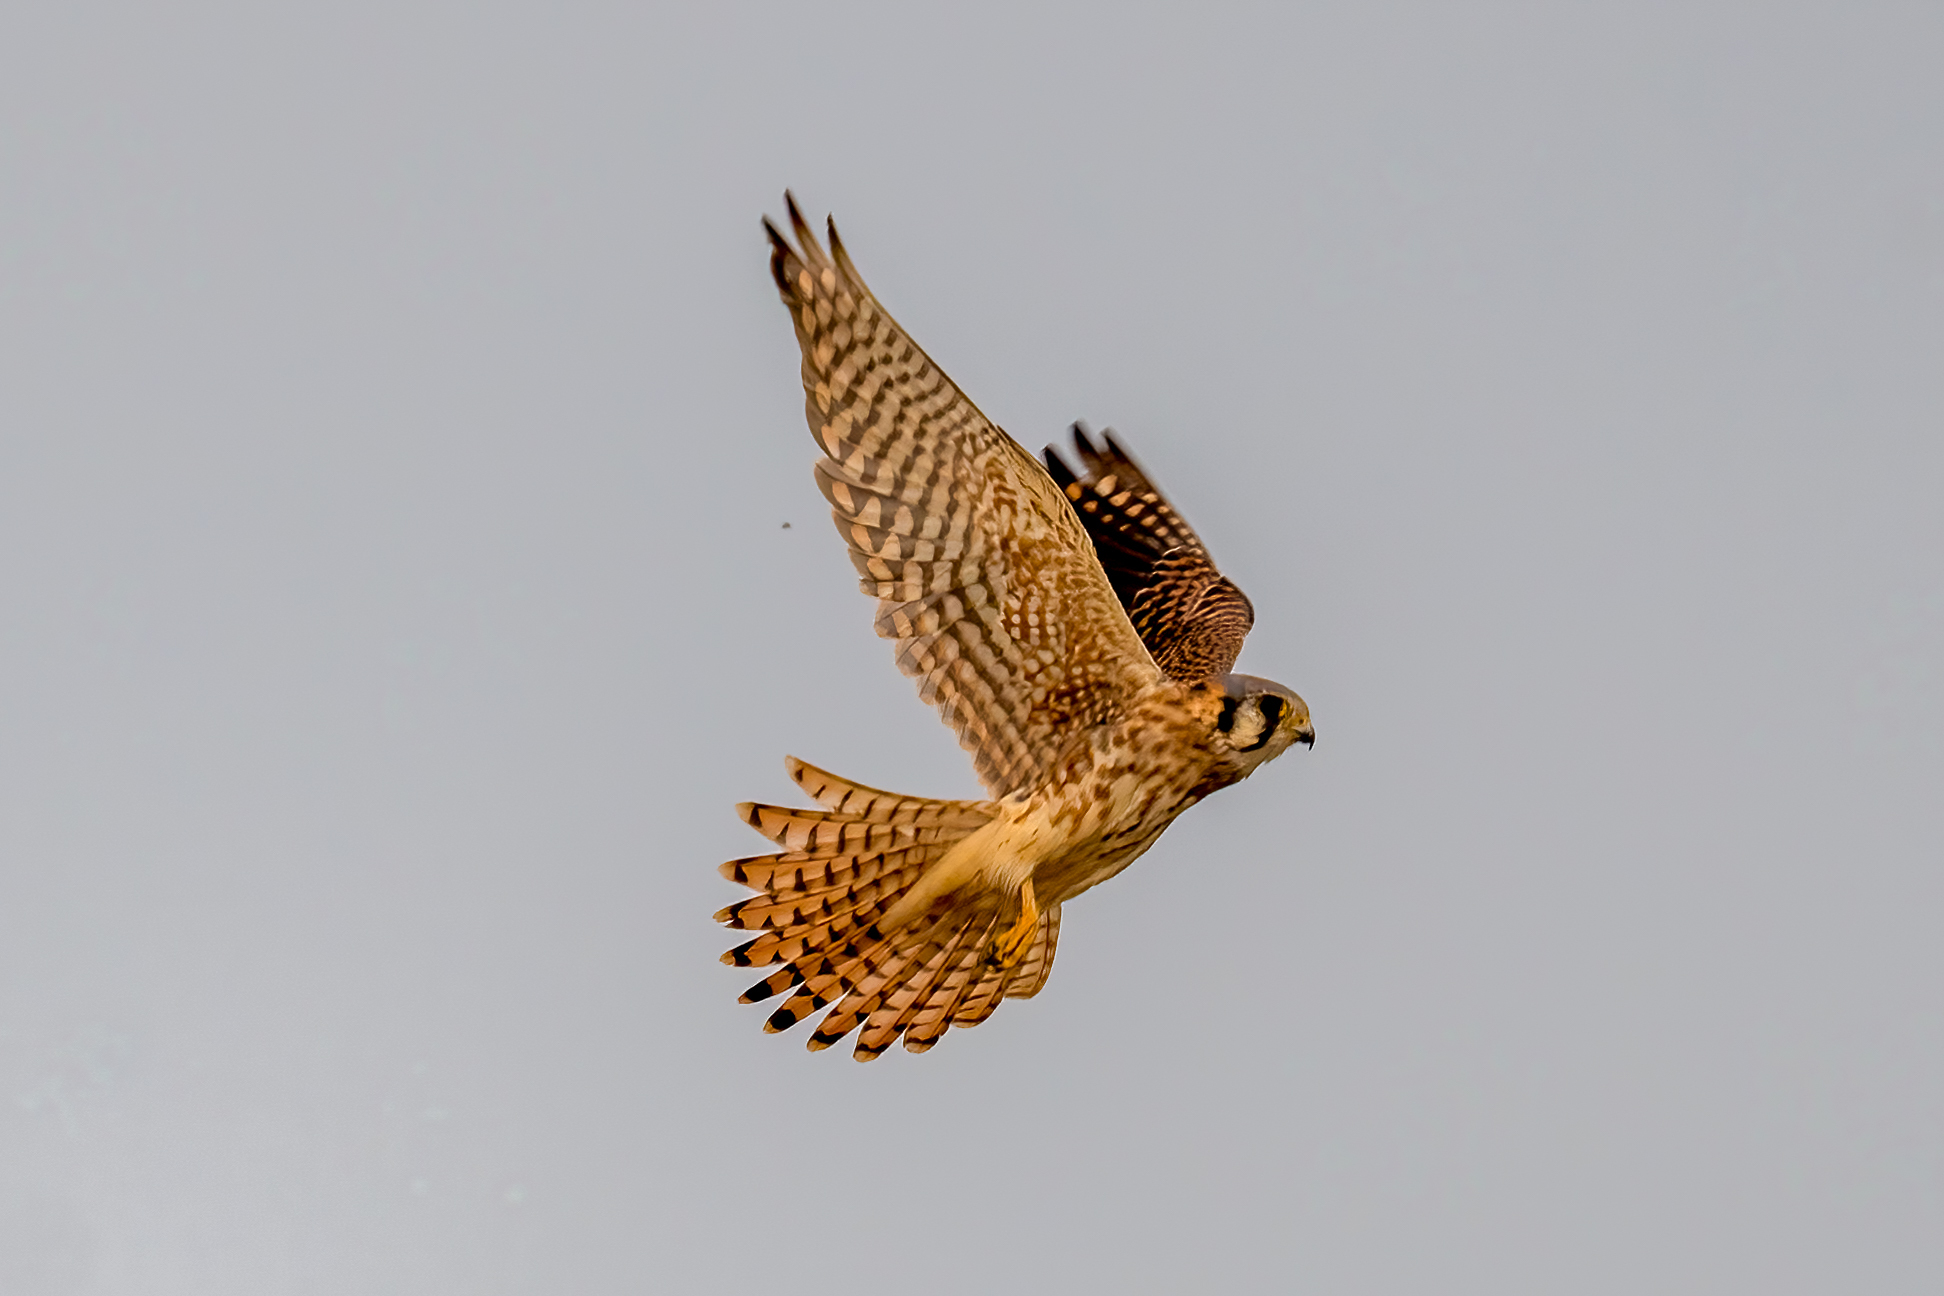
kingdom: Animalia
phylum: Chordata
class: Aves
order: Falconiformes
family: Falconidae
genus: Falco
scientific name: Falco sparverius
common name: American kestrel
